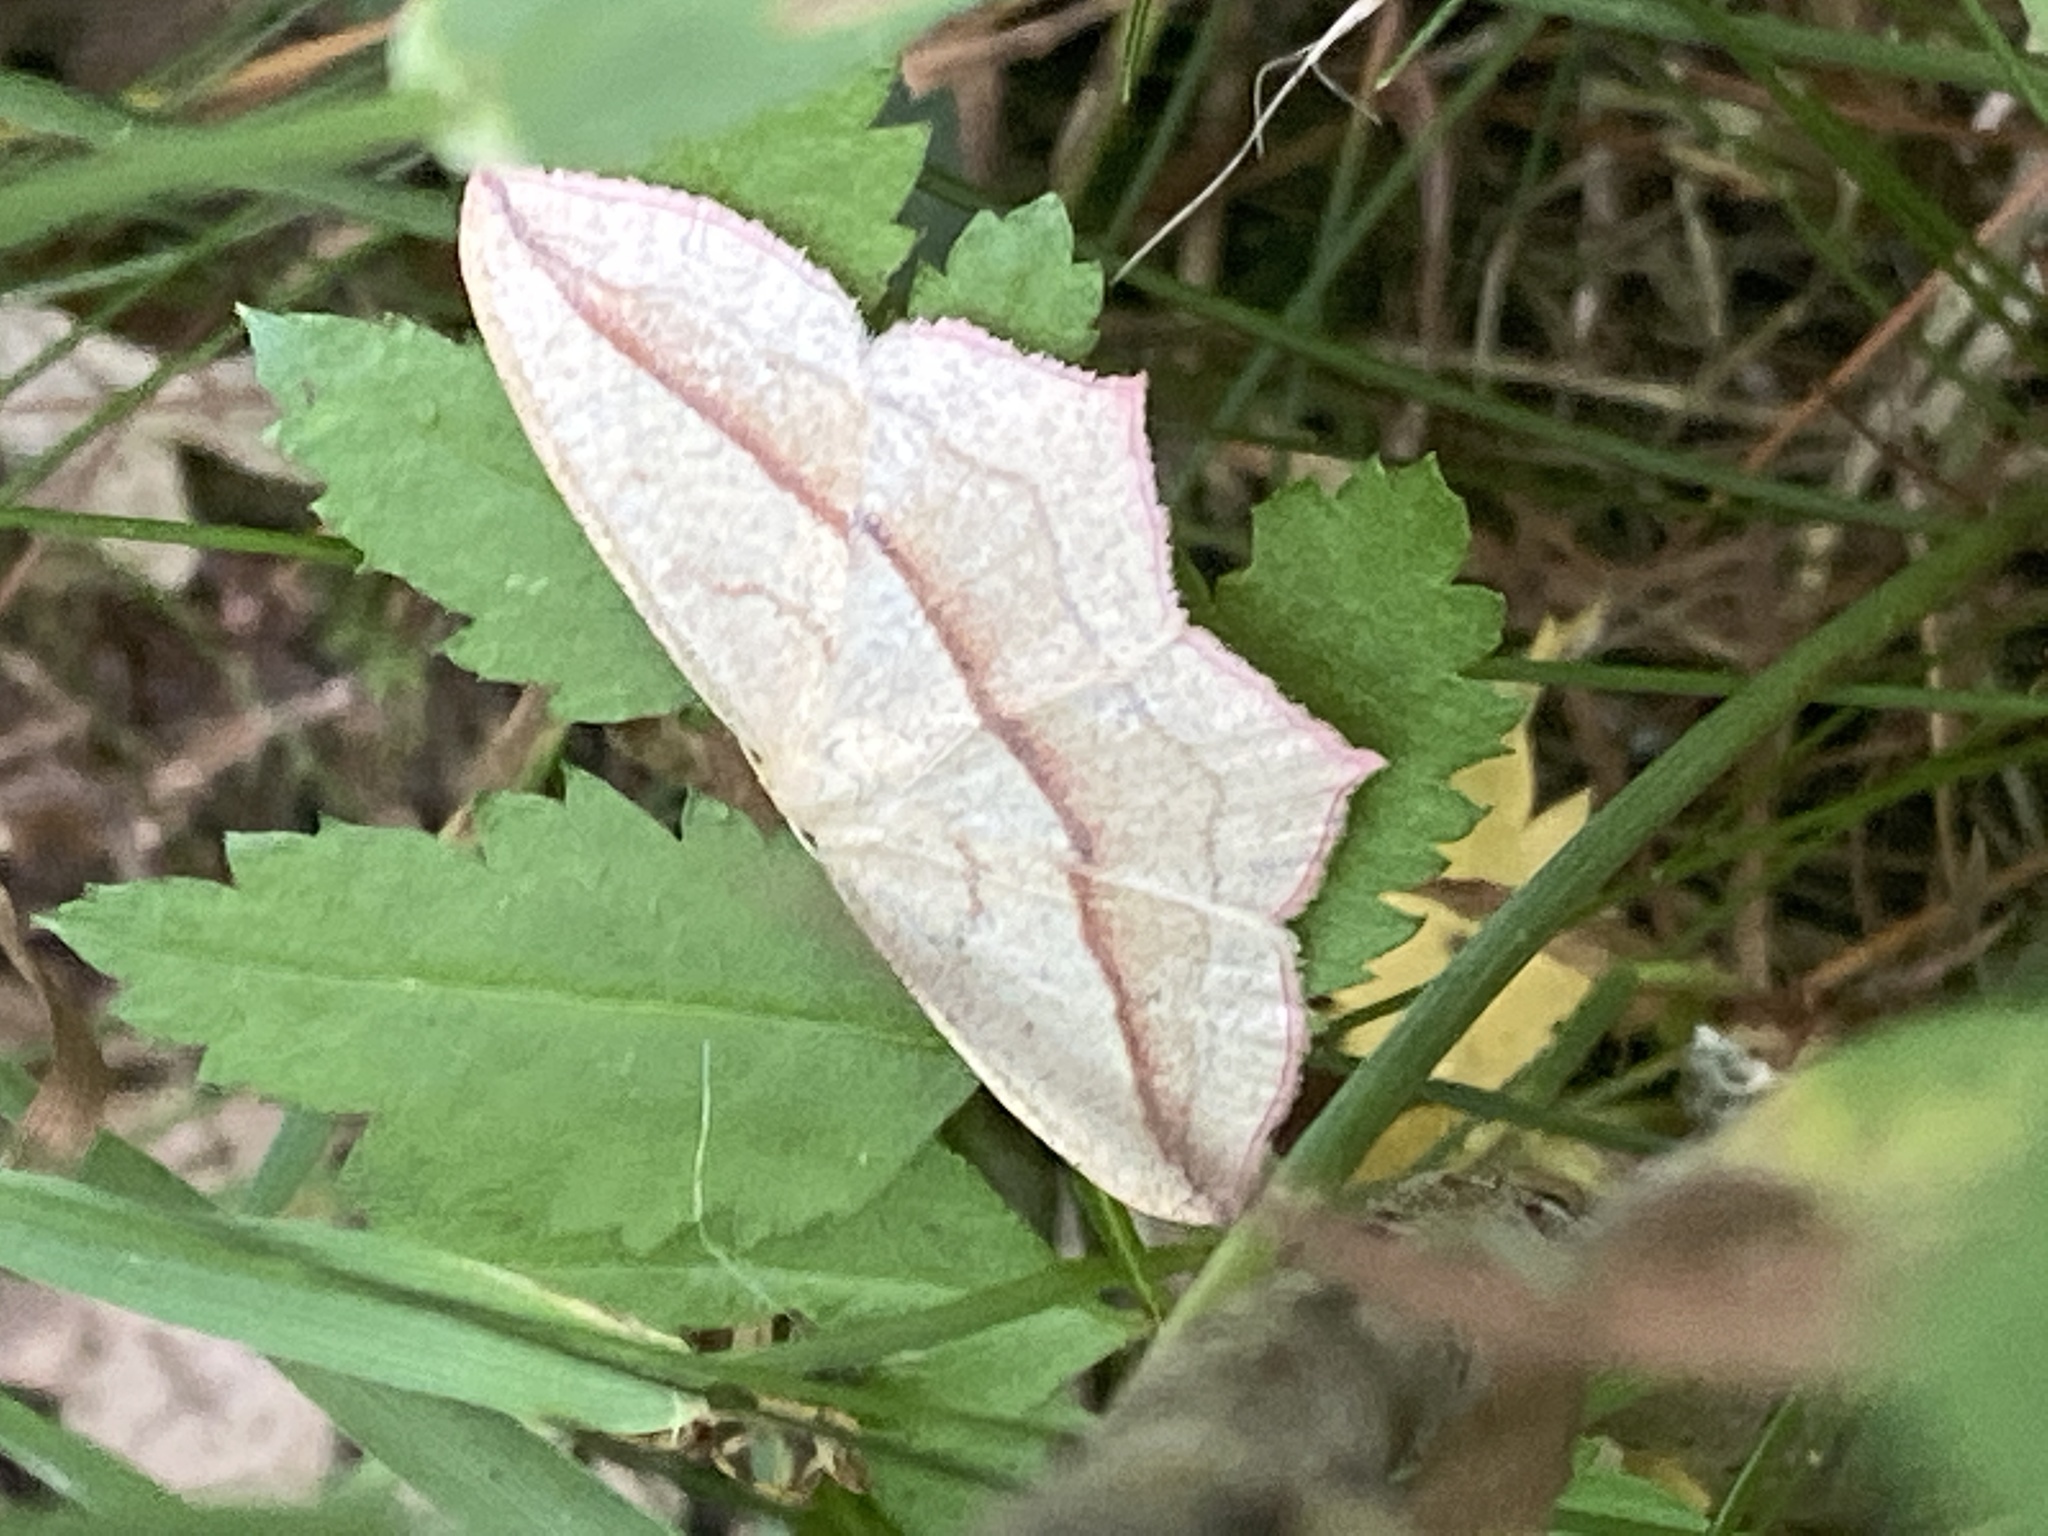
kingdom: Animalia
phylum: Arthropoda
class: Insecta
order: Lepidoptera
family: Geometridae
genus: Timandra
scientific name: Timandra comae
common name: Blood-vein
